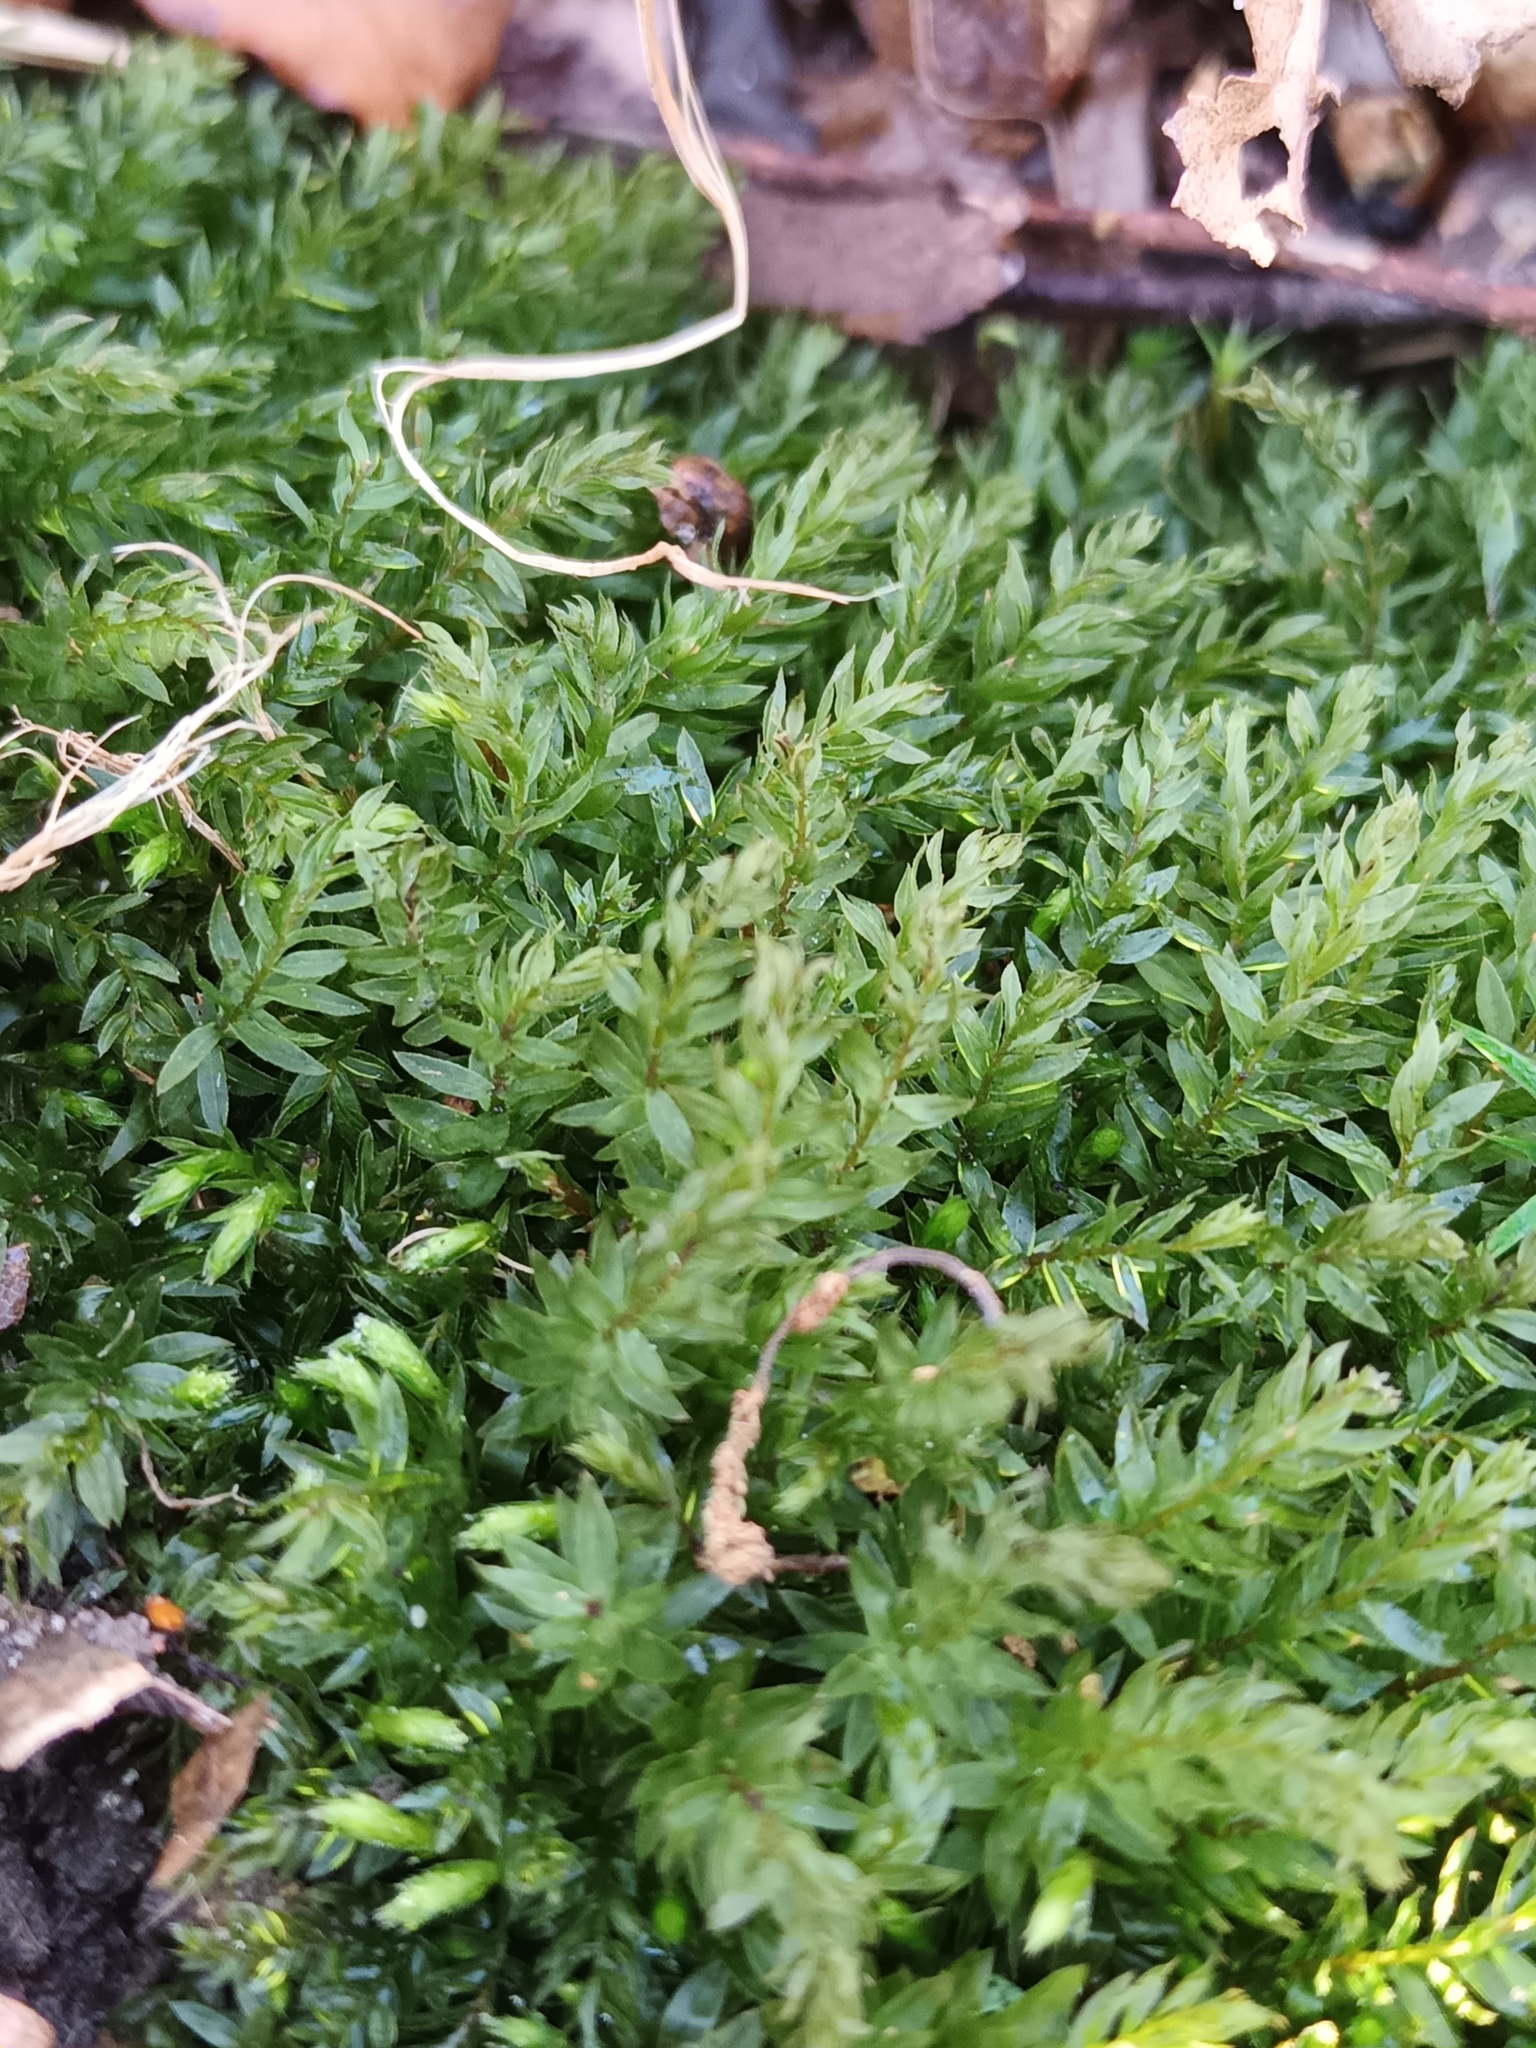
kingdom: Plantae
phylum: Bryophyta
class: Bryopsida
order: Bryales
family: Mniaceae
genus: Mnium
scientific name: Mnium hornum
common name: Swan's-neck leafy moss
